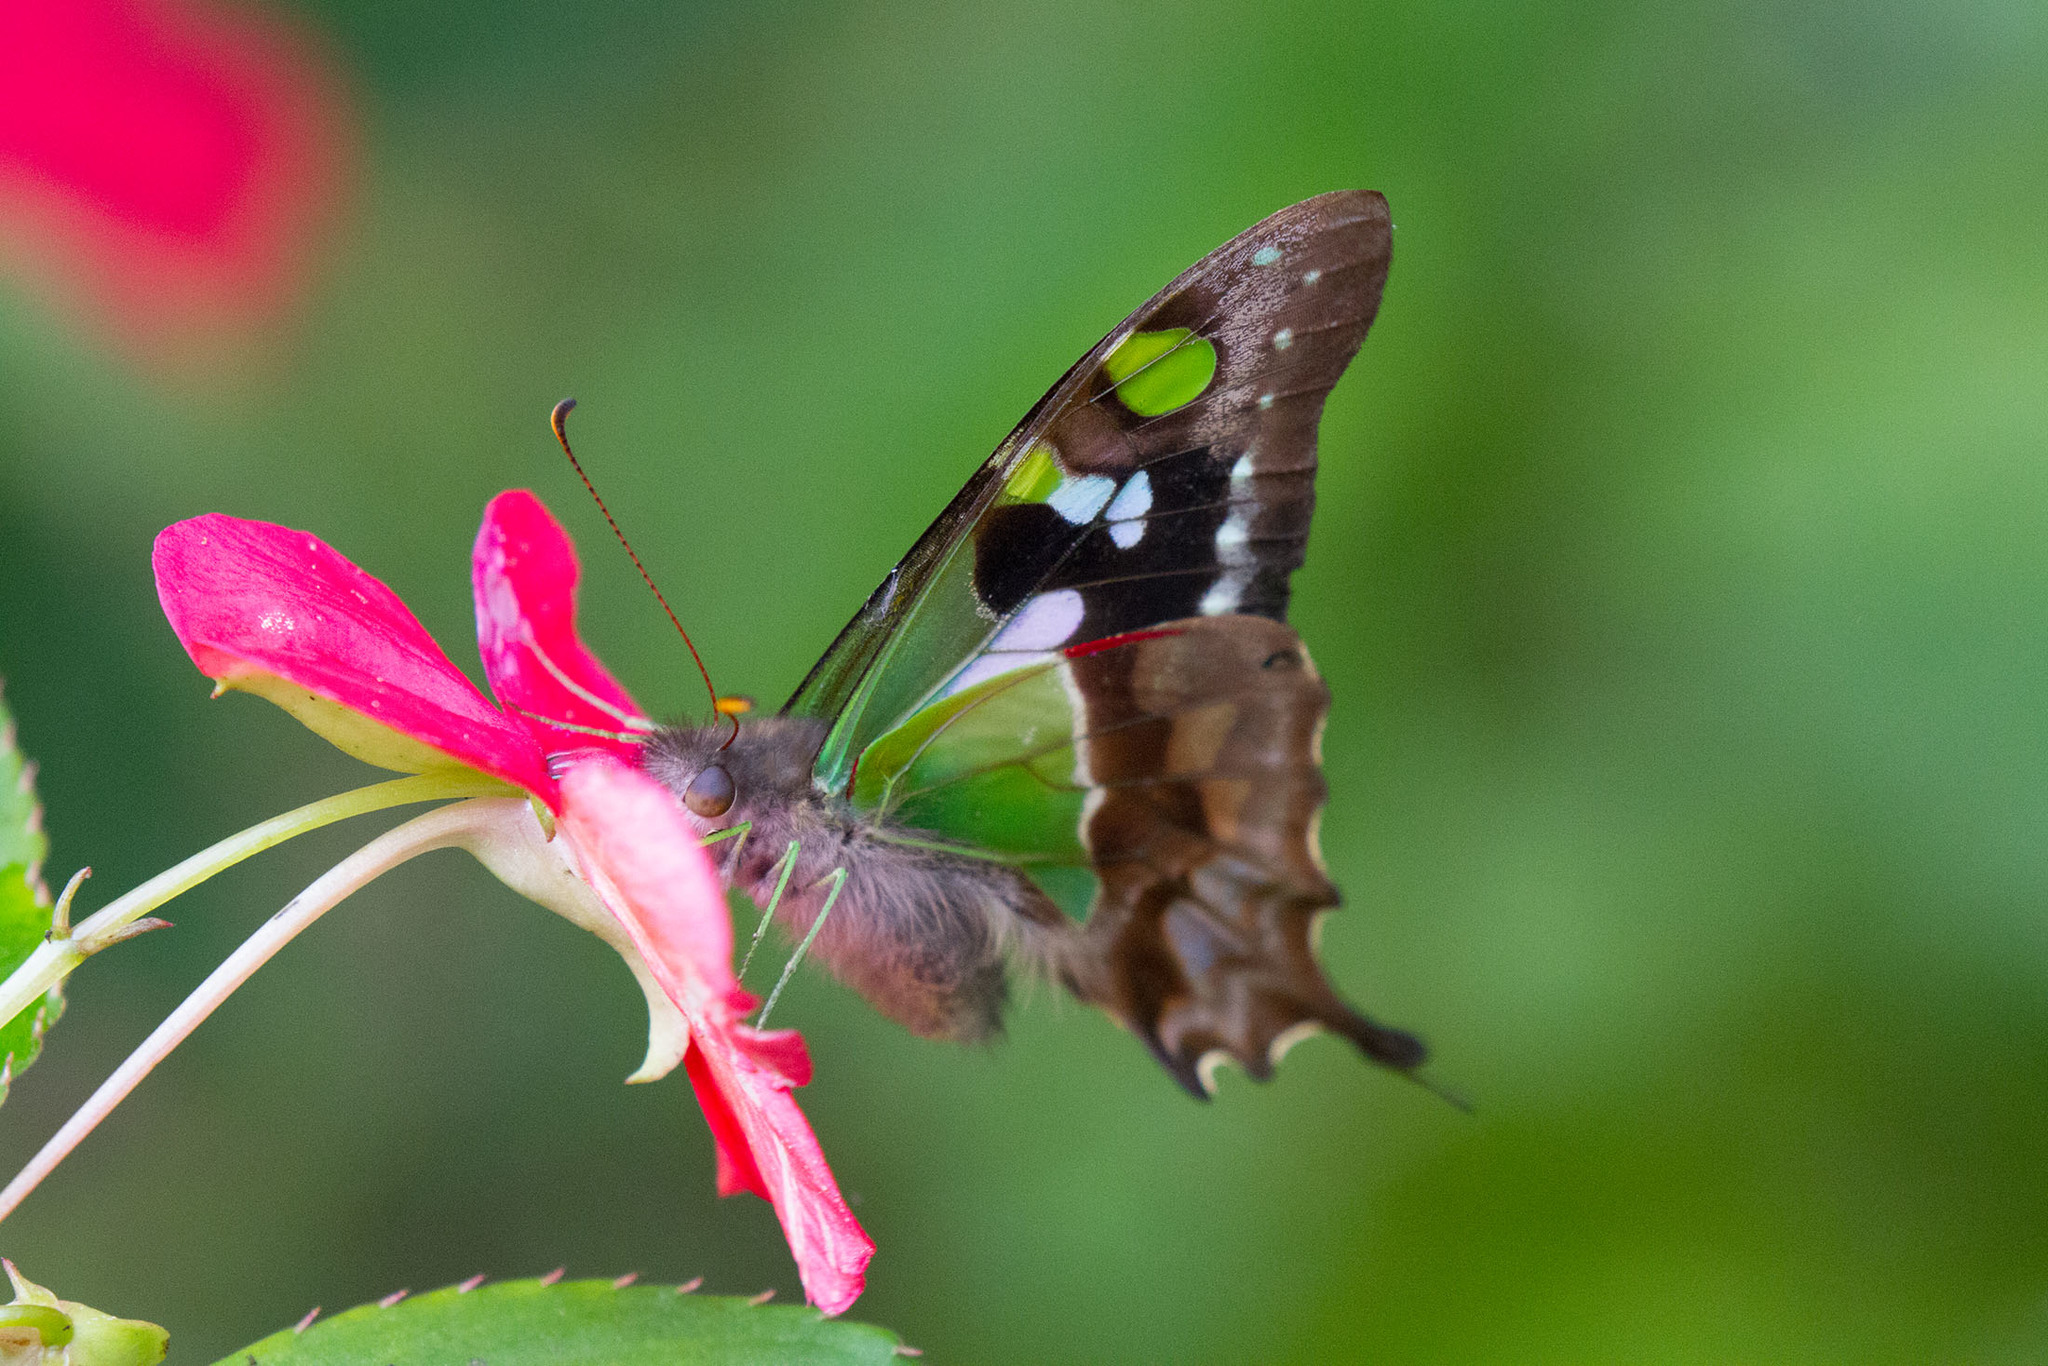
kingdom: Animalia
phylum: Arthropoda
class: Insecta
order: Lepidoptera
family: Papilionidae
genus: Graphium
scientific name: Graphium weiskei
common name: Purple spotted swallowtail
